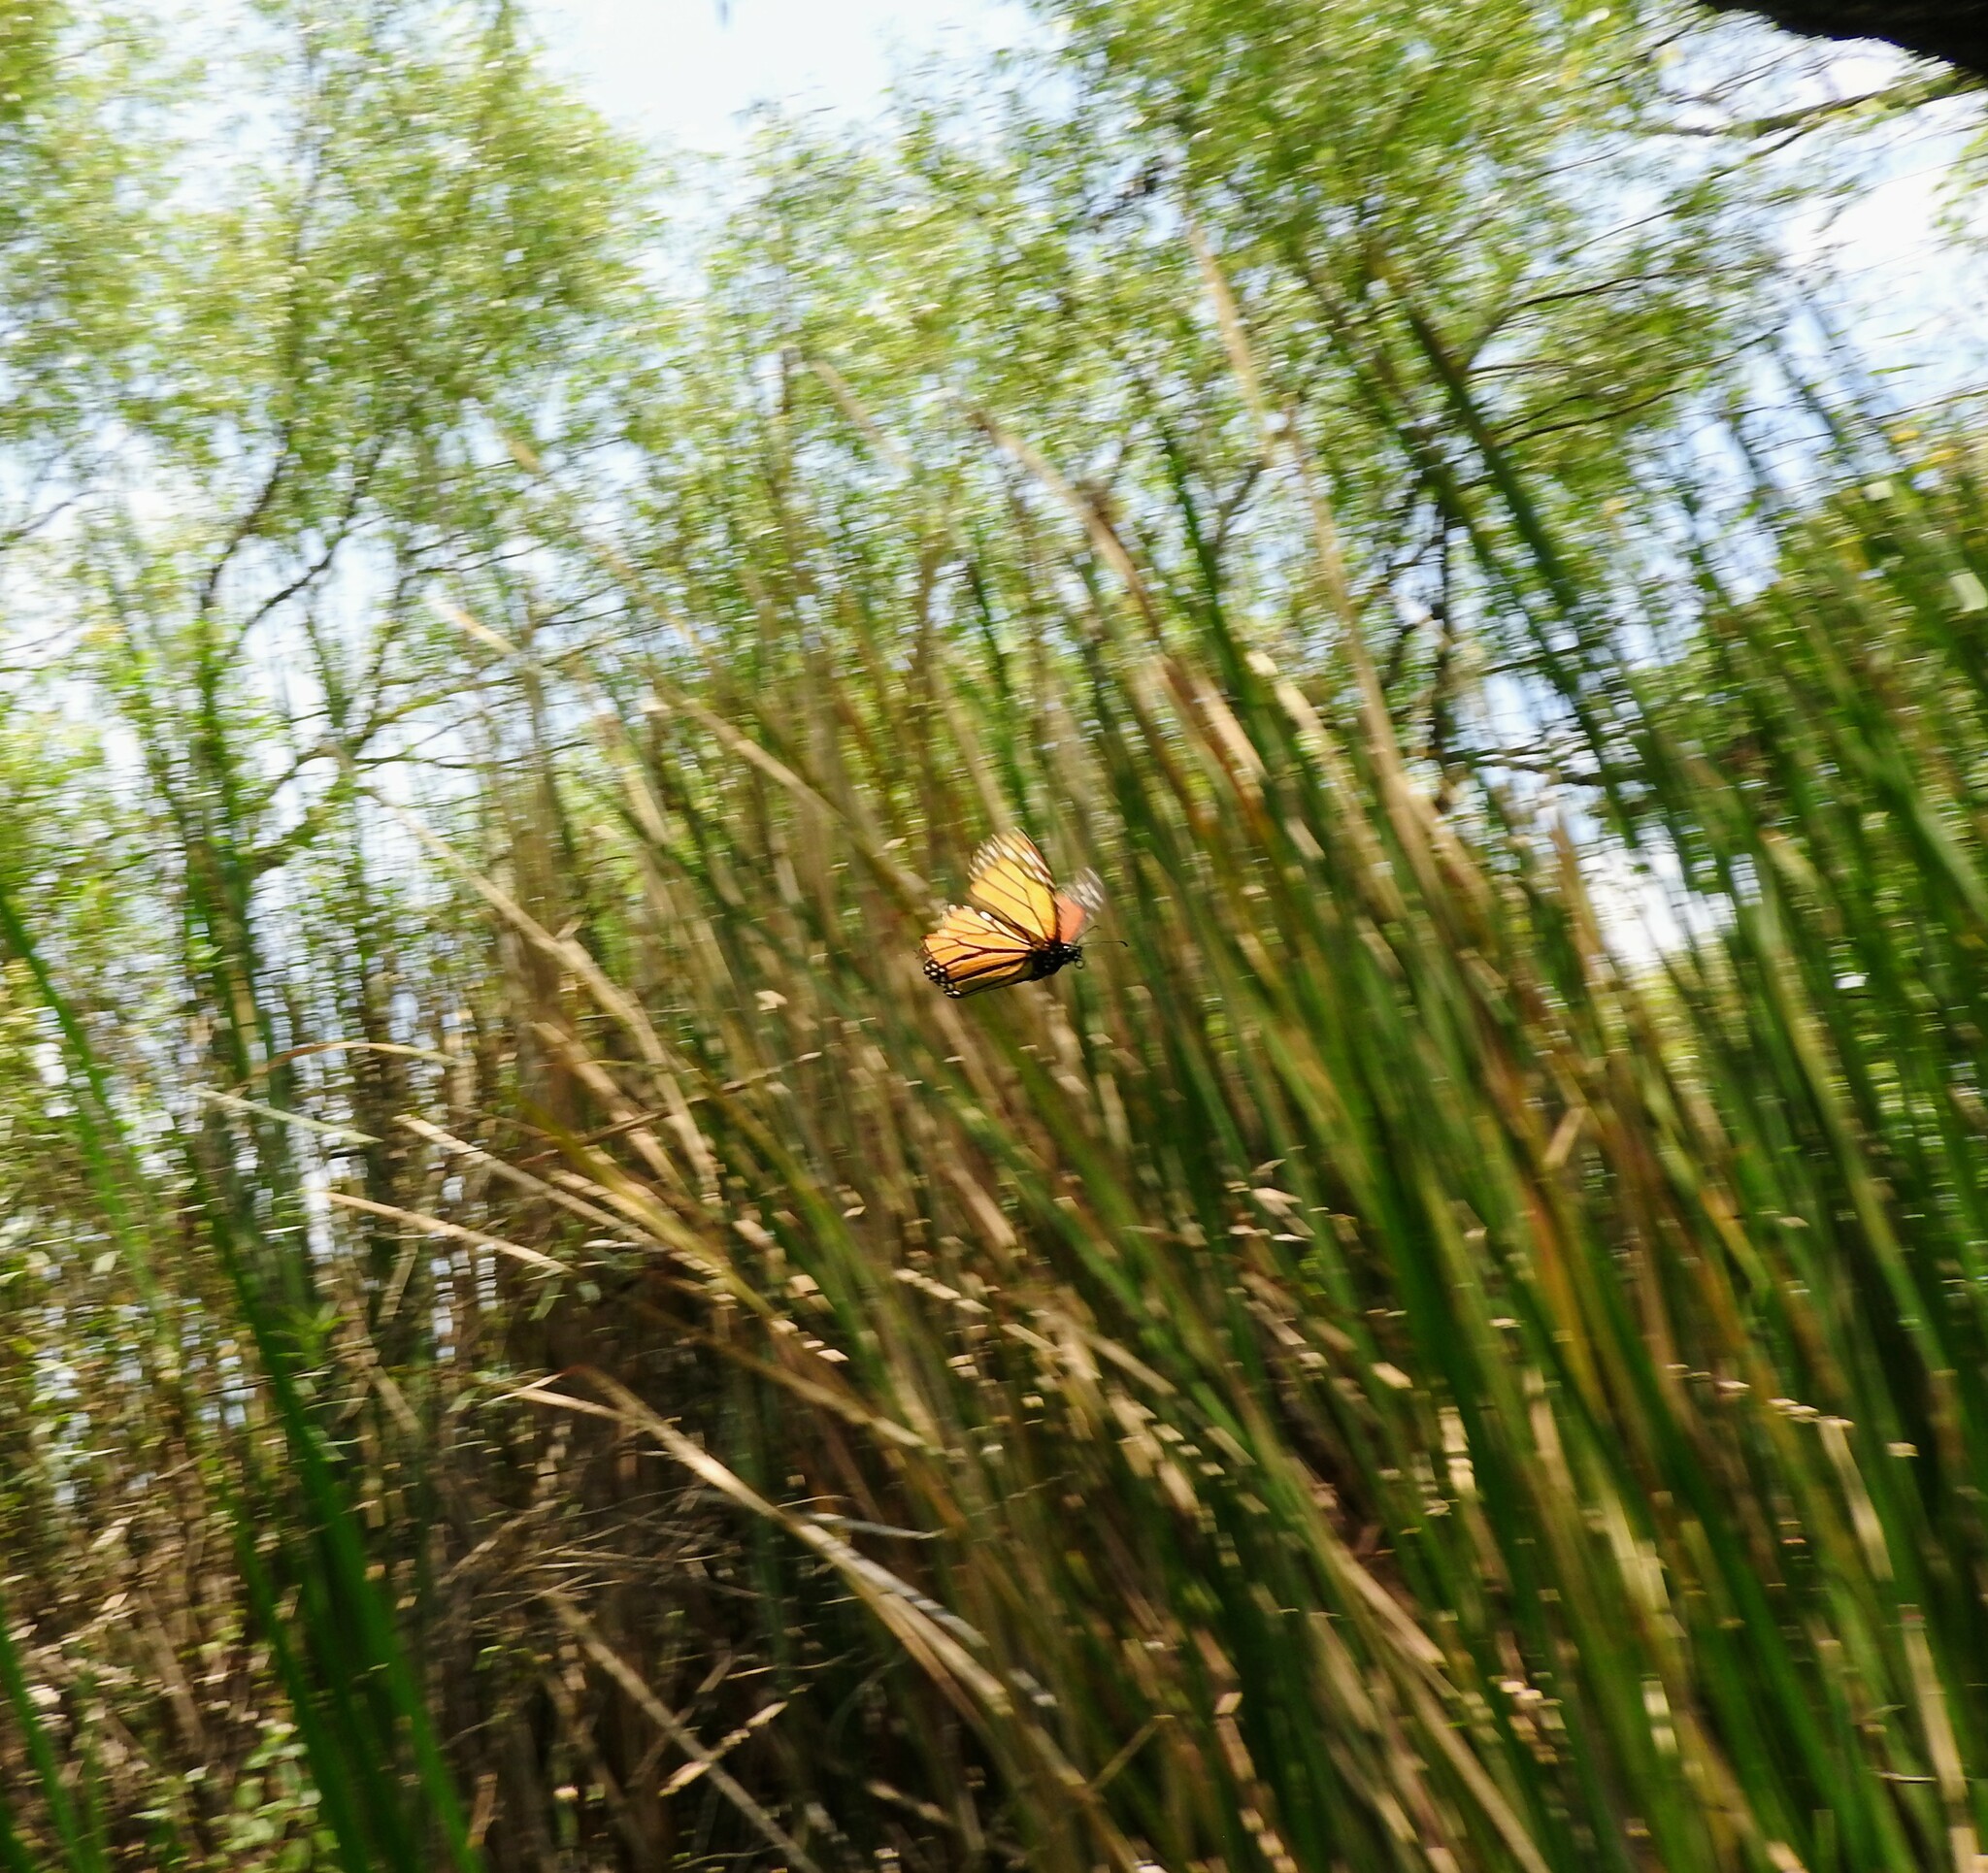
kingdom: Animalia
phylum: Arthropoda
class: Insecta
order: Lepidoptera
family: Nymphalidae
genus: Danaus
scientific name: Danaus plexippus
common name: Monarch
